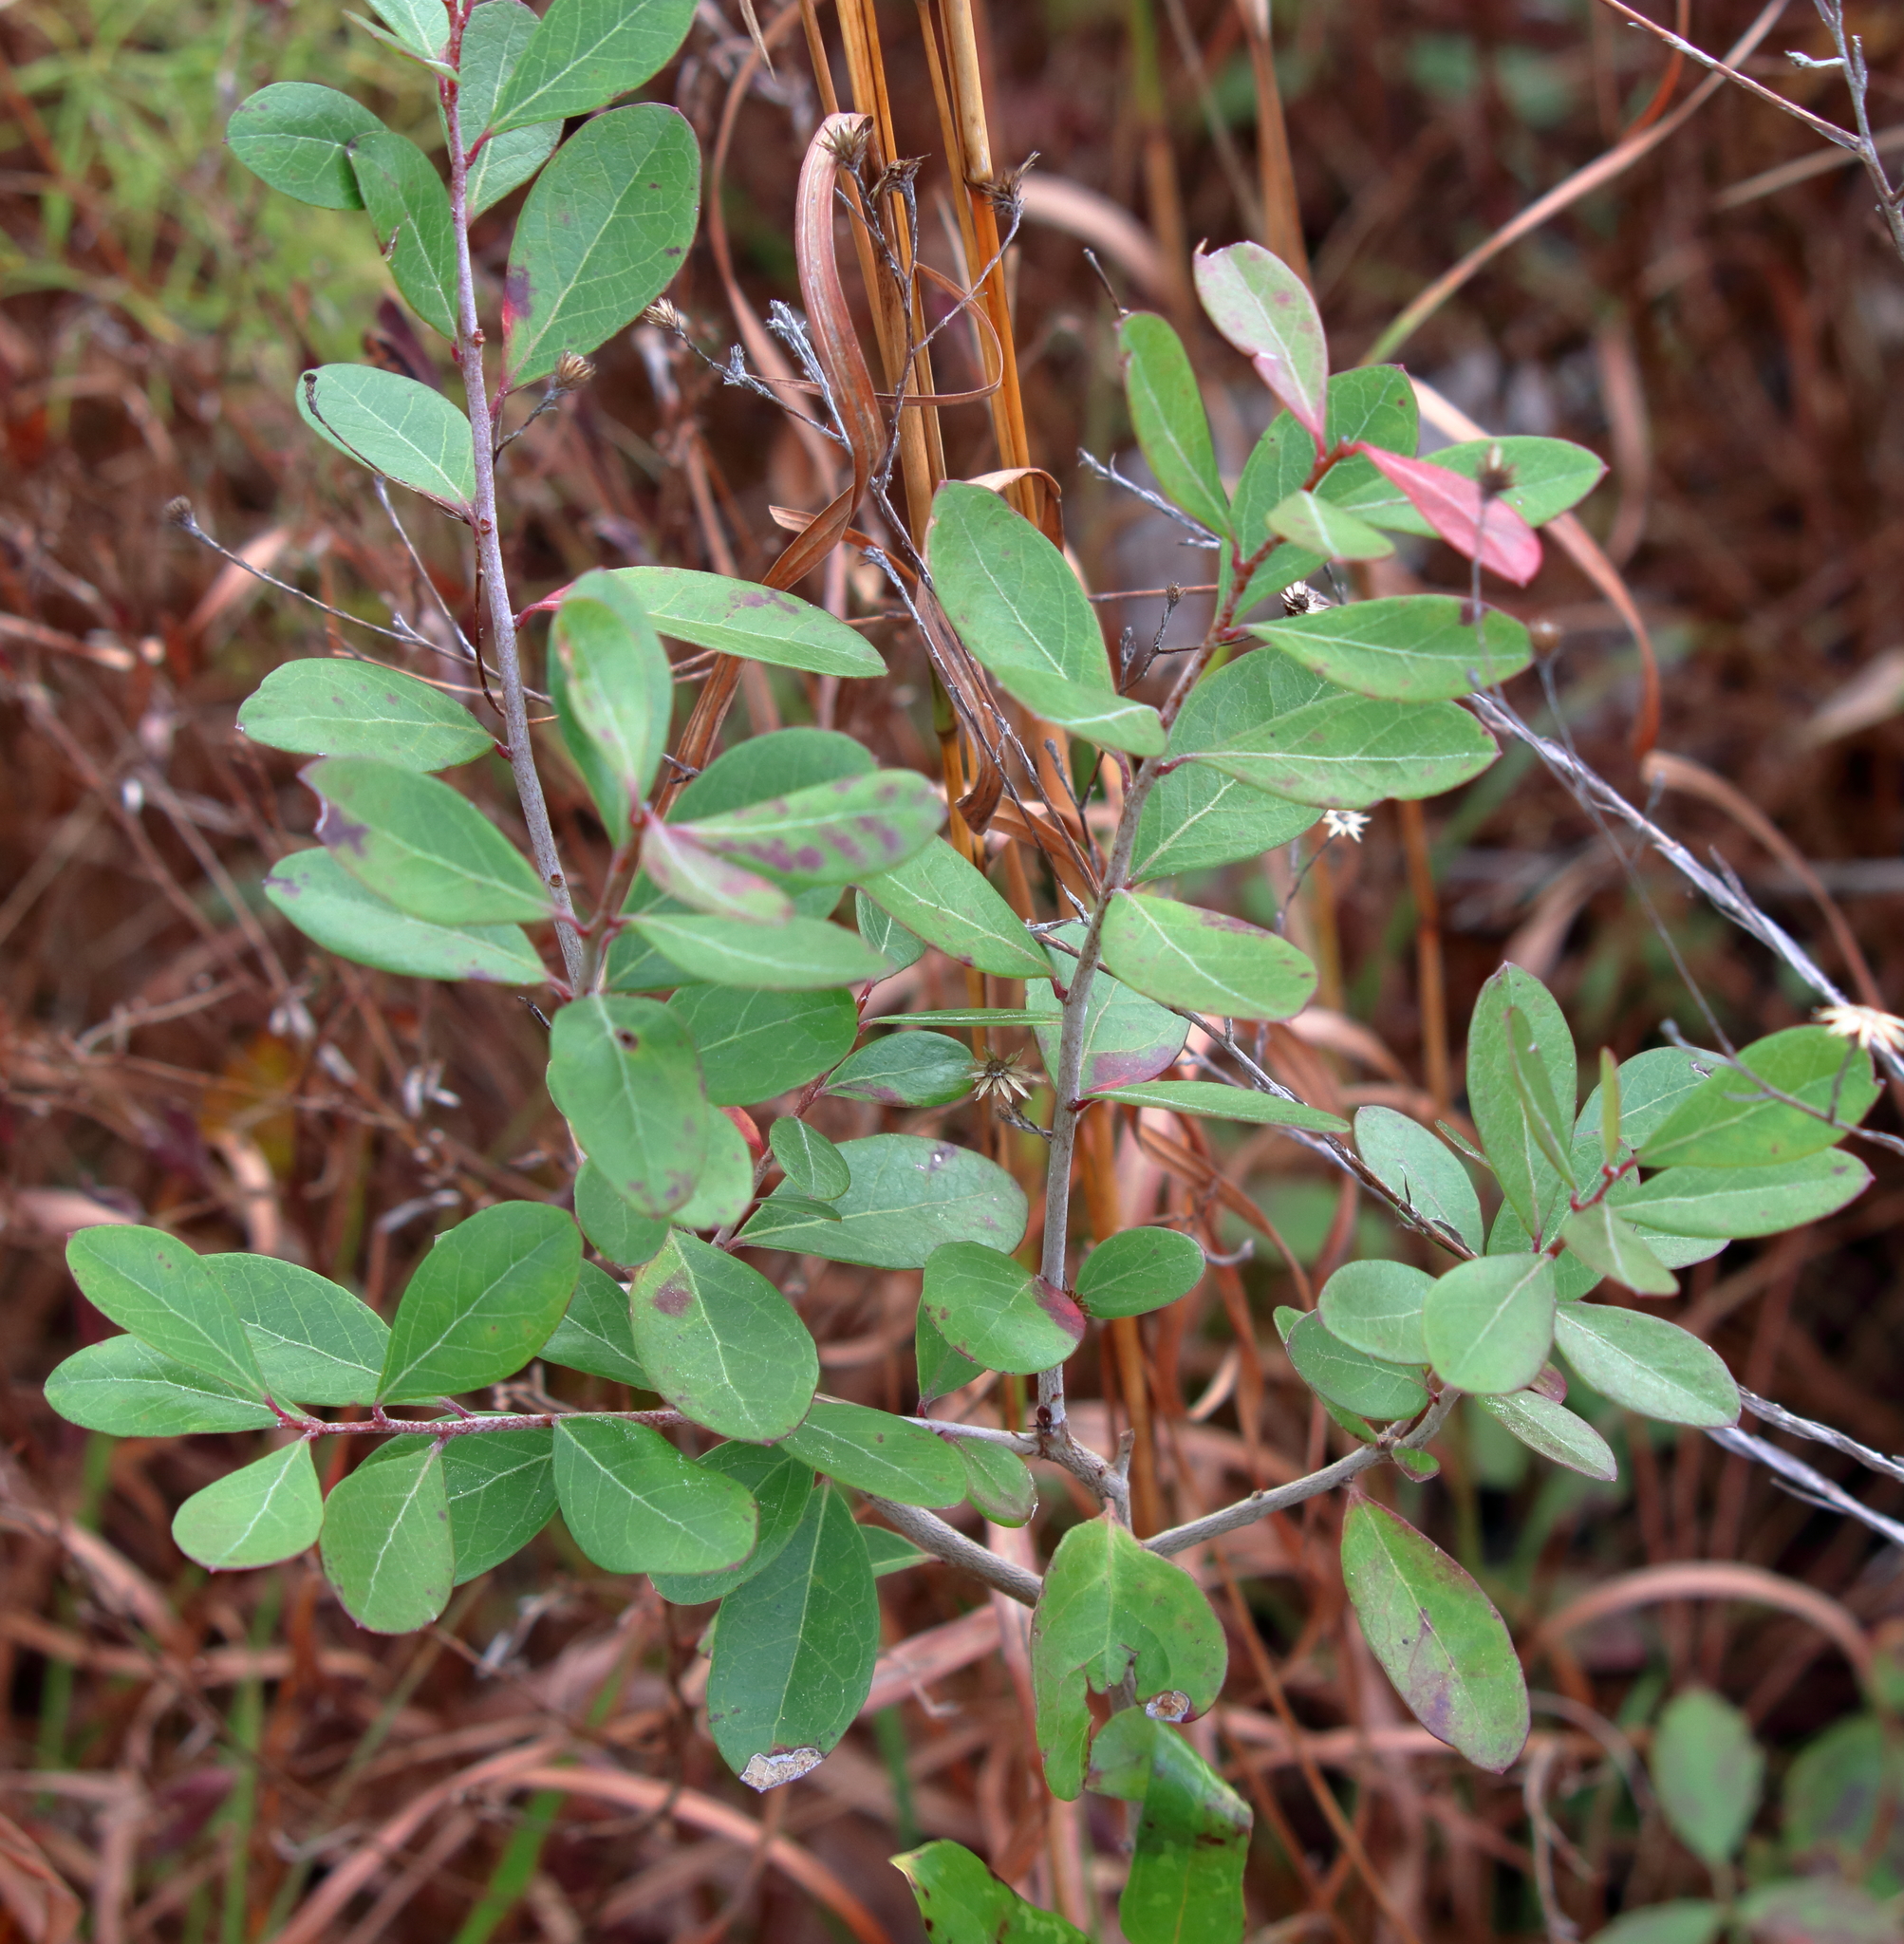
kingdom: Plantae
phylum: Tracheophyta
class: Magnoliopsida
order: Ericales
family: Ericaceae
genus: Vaccinium
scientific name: Vaccinium arboreum
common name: Farkleberry
